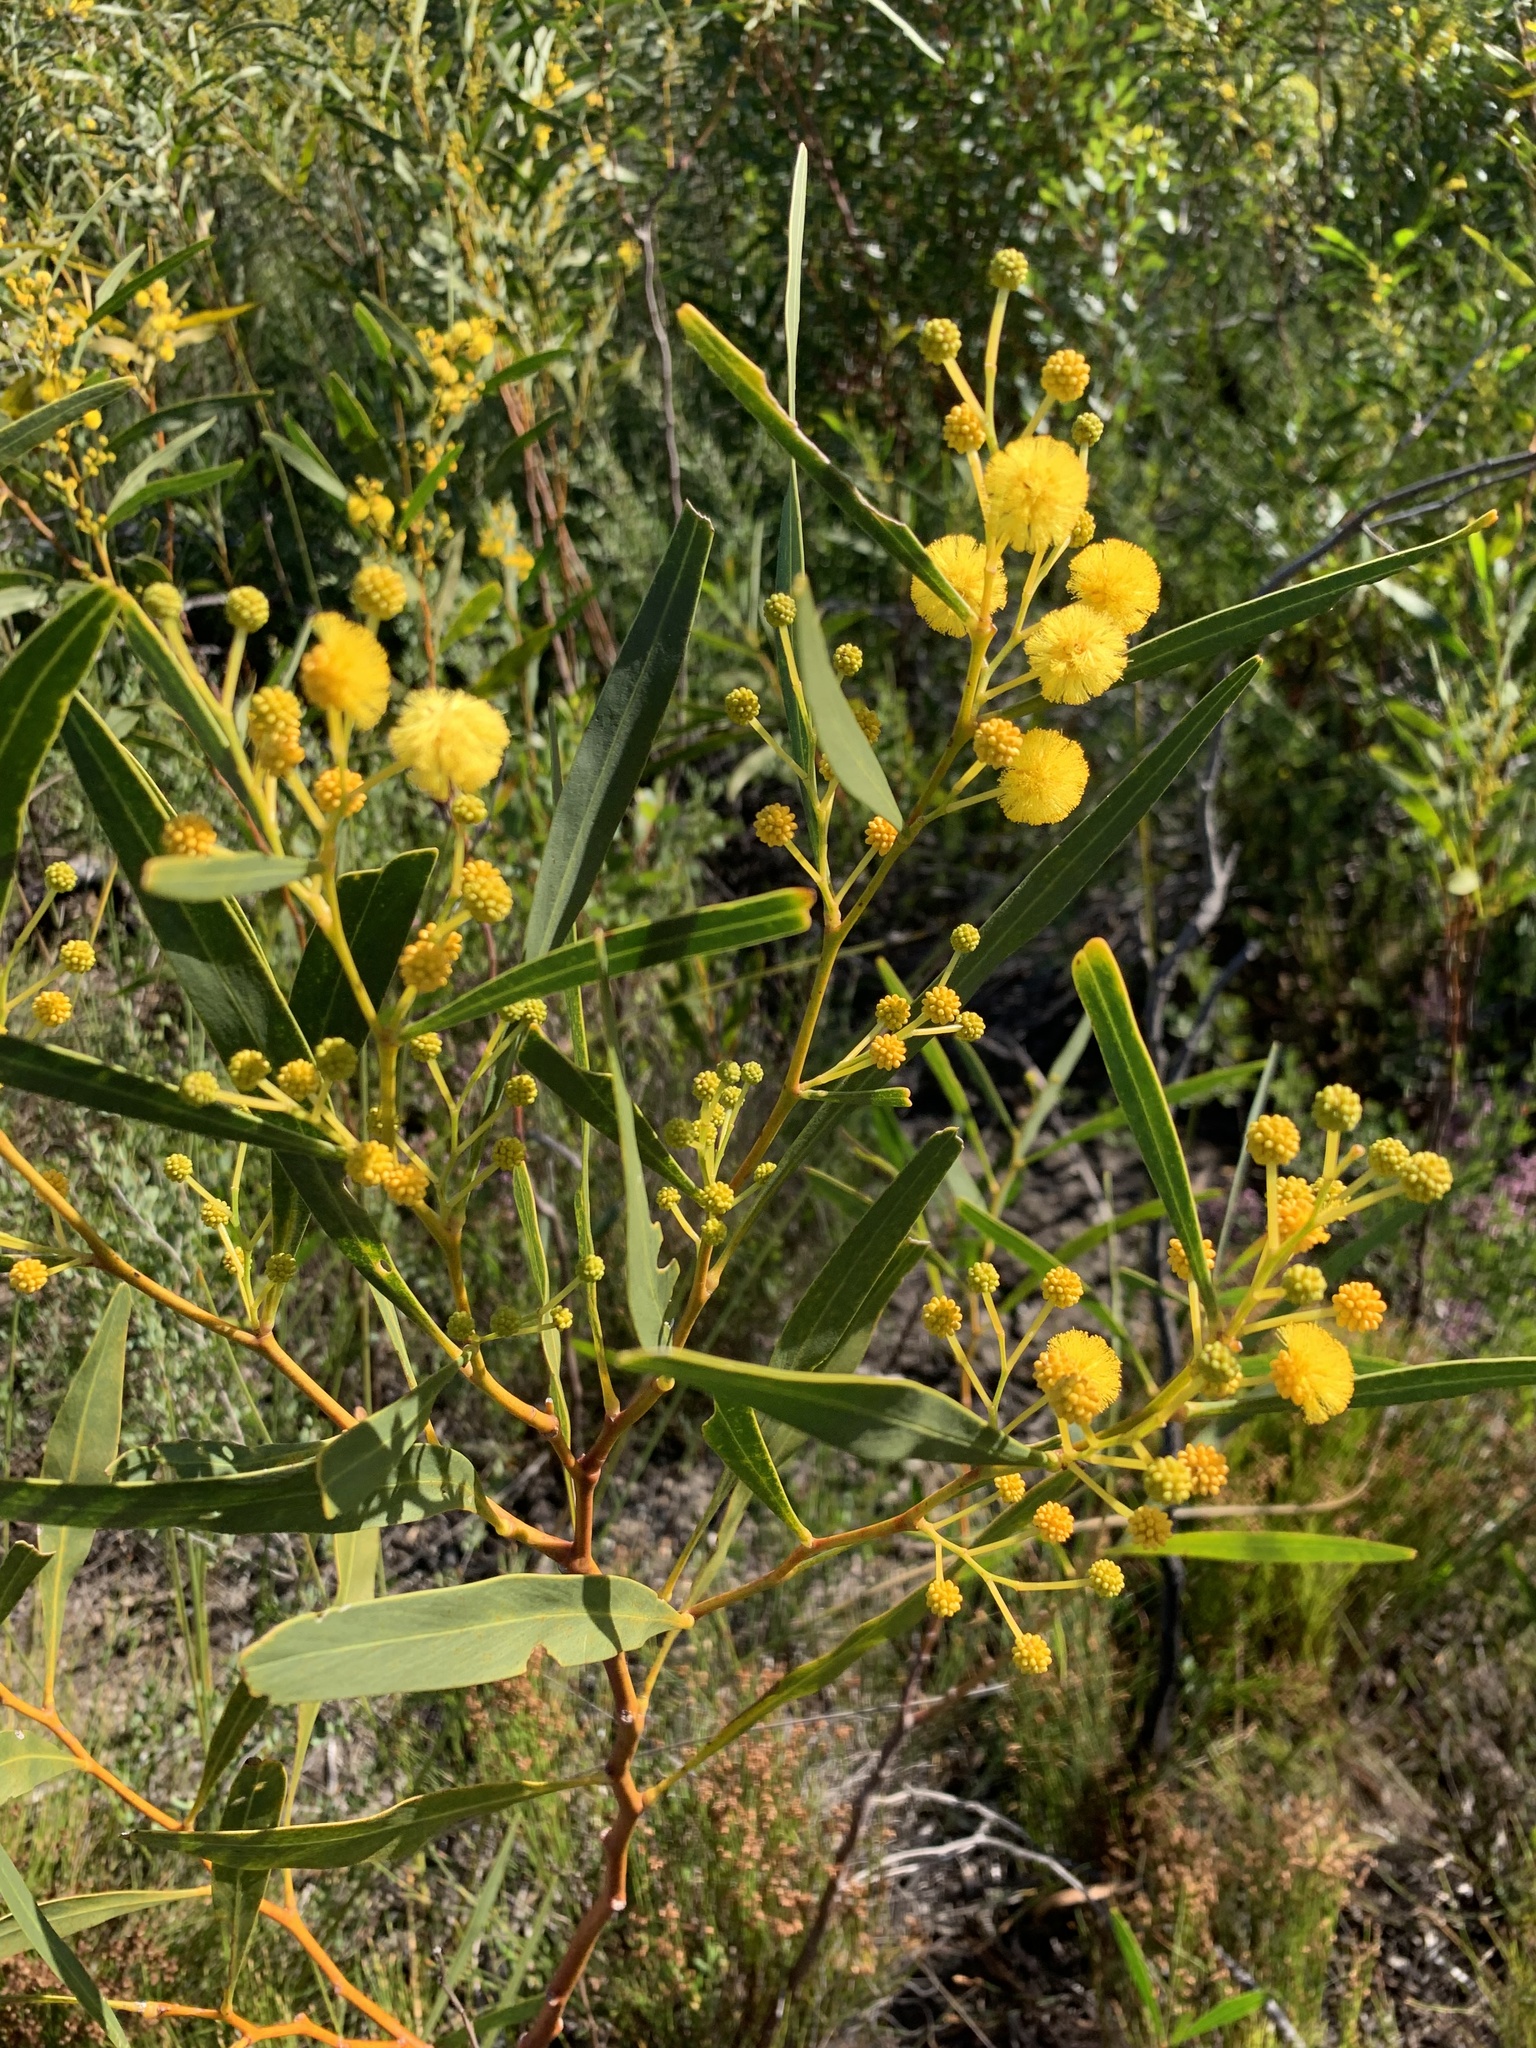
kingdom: Plantae
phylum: Tracheophyta
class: Magnoliopsida
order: Fabales
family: Fabaceae
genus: Acacia
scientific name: Acacia saligna
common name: Orange wattle
